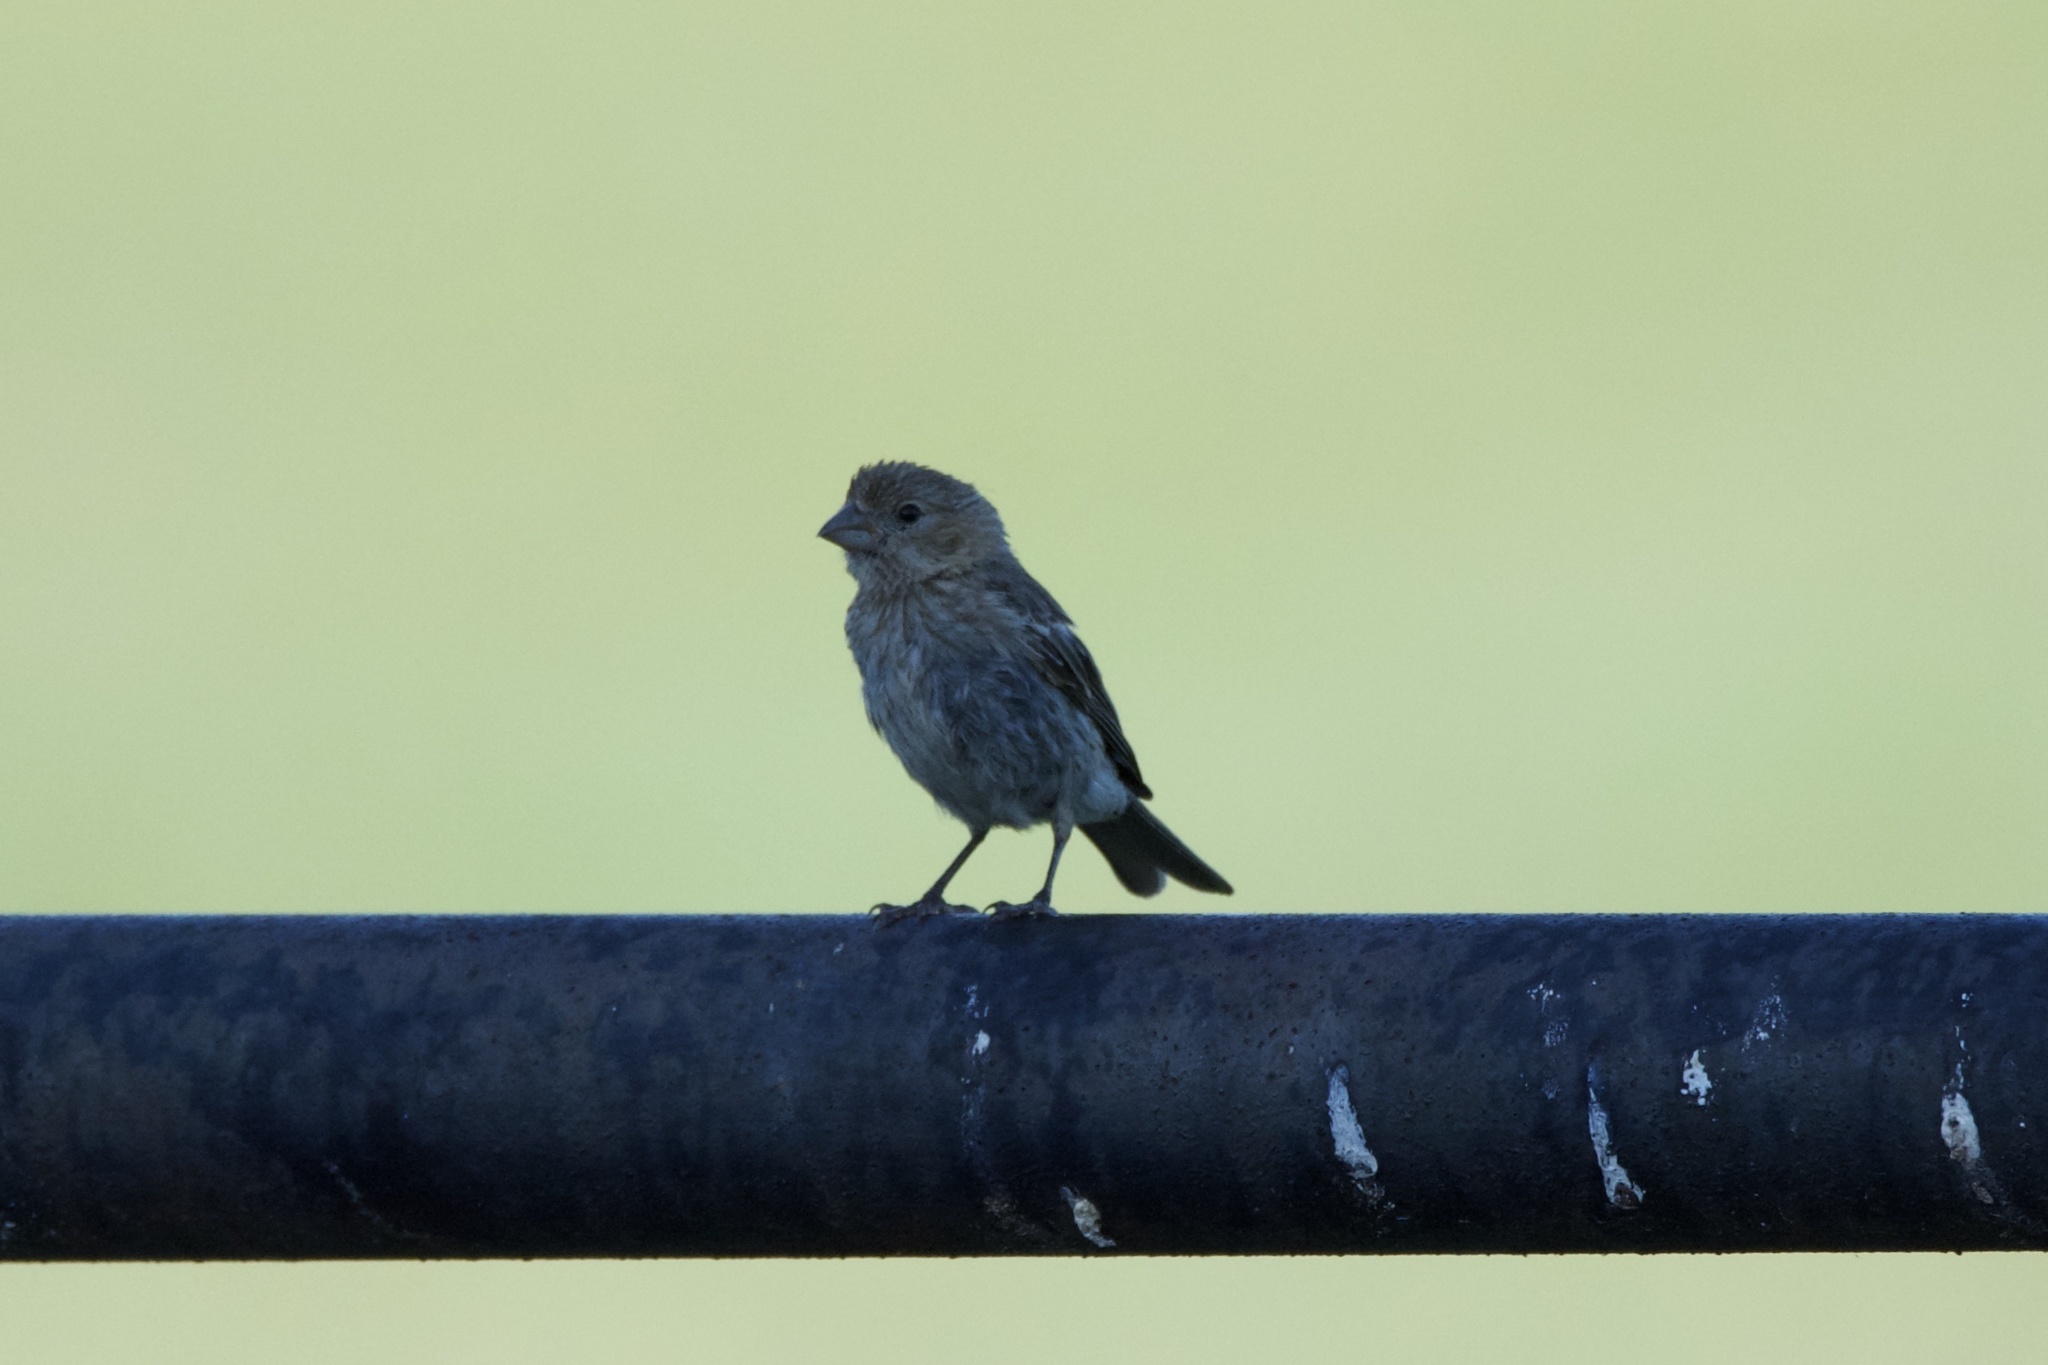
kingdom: Animalia
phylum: Chordata
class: Aves
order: Passeriformes
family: Fringillidae
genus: Haemorhous
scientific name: Haemorhous mexicanus
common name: House finch
